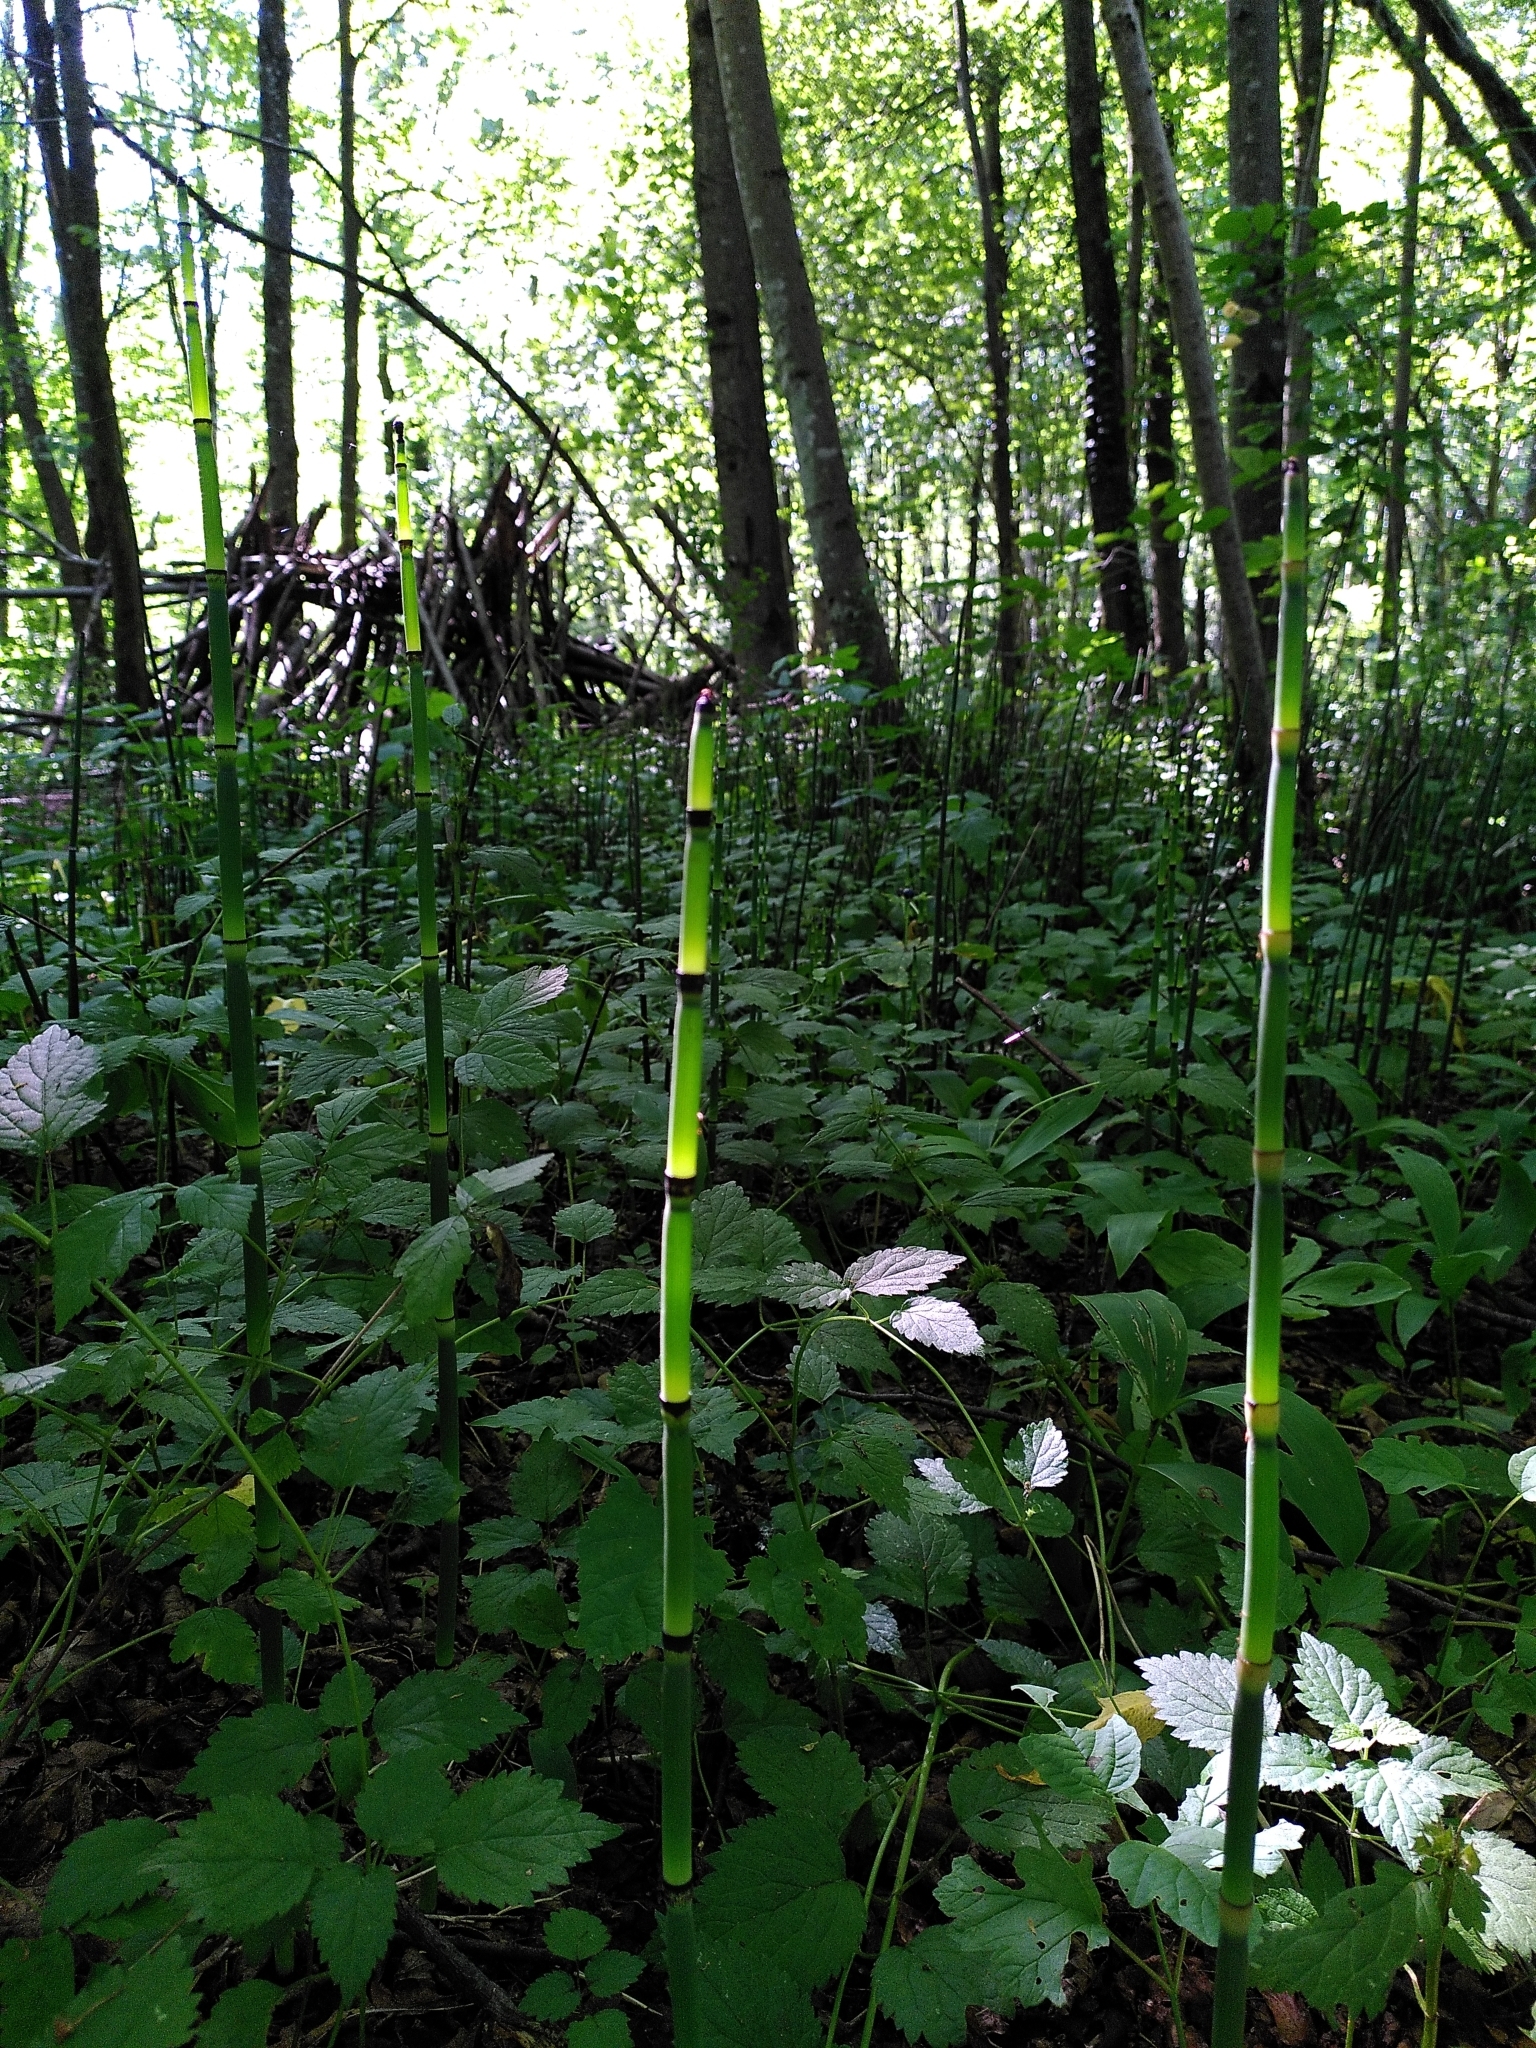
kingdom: Plantae
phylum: Tracheophyta
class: Polypodiopsida
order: Equisetales
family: Equisetaceae
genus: Equisetum
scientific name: Equisetum hyemale
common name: Rough horsetail
